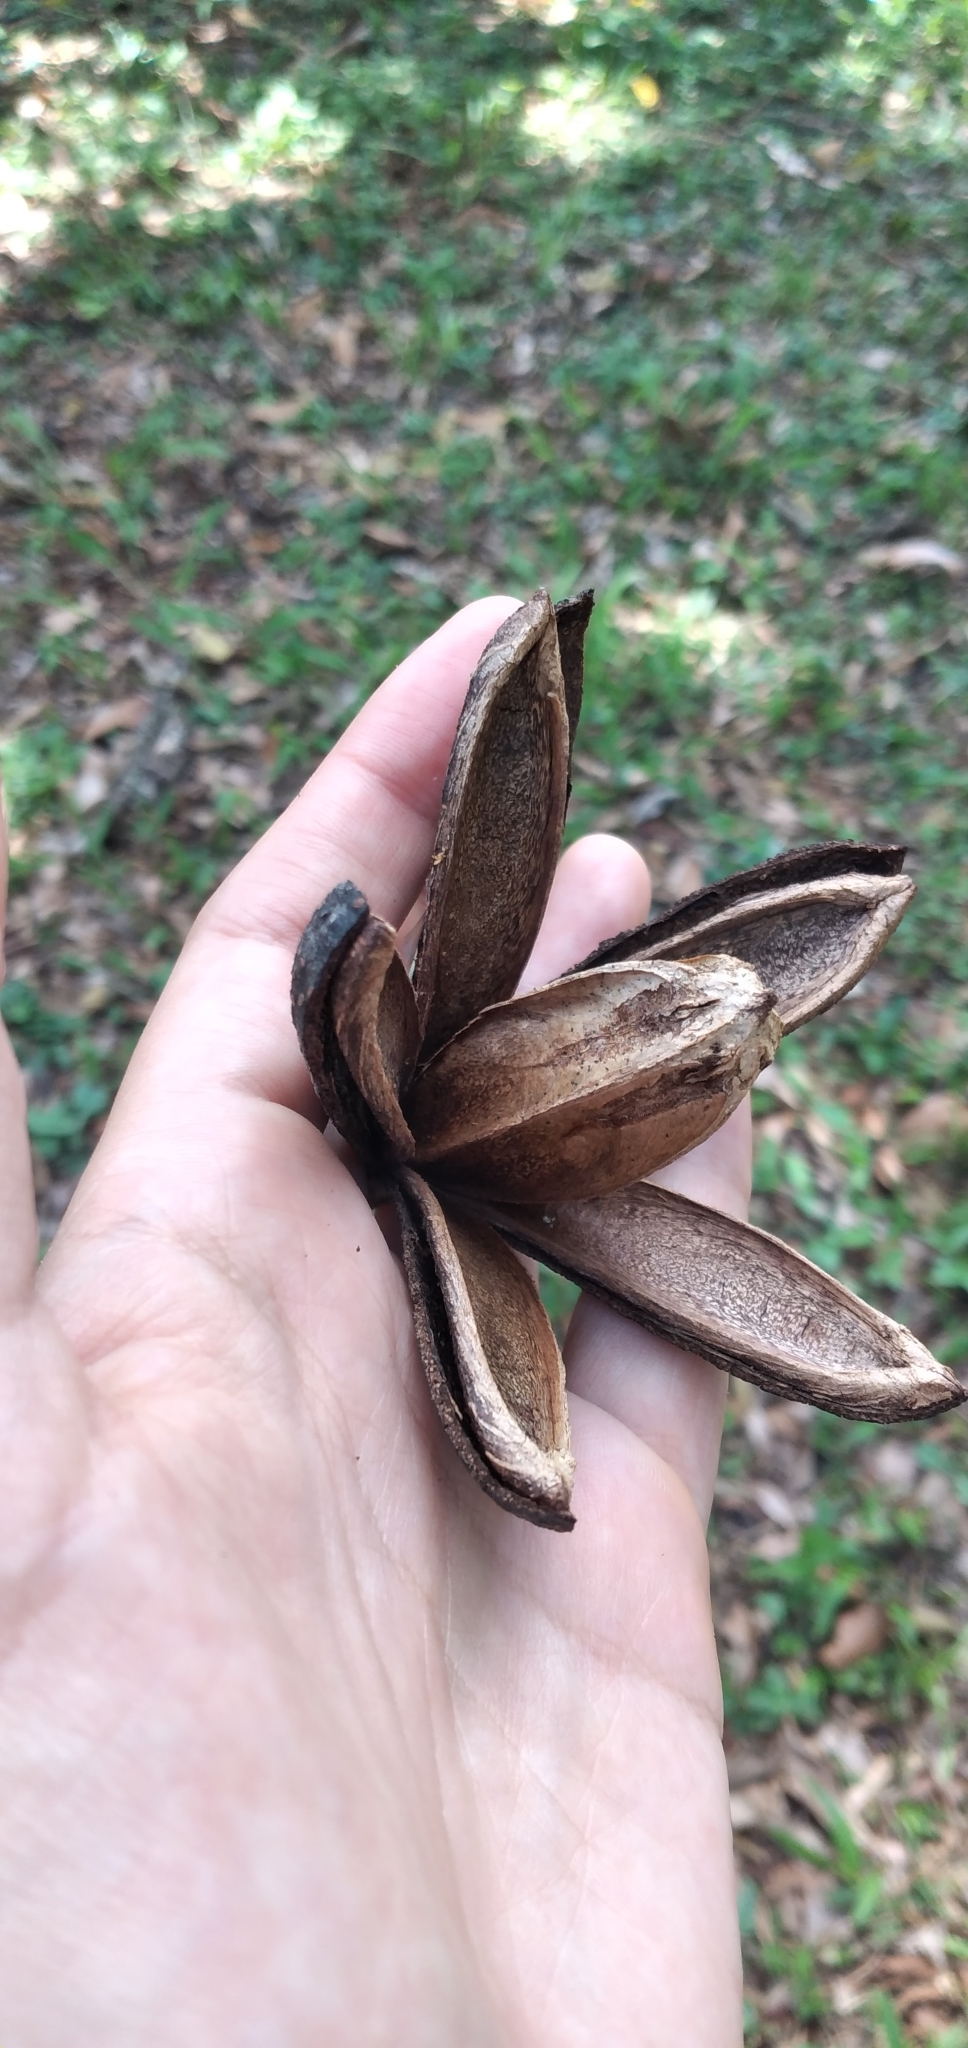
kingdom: Plantae
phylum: Tracheophyta
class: Magnoliopsida
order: Sapindales
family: Meliaceae
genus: Cedrela
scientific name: Cedrela fissilis
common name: Argentine cedar
